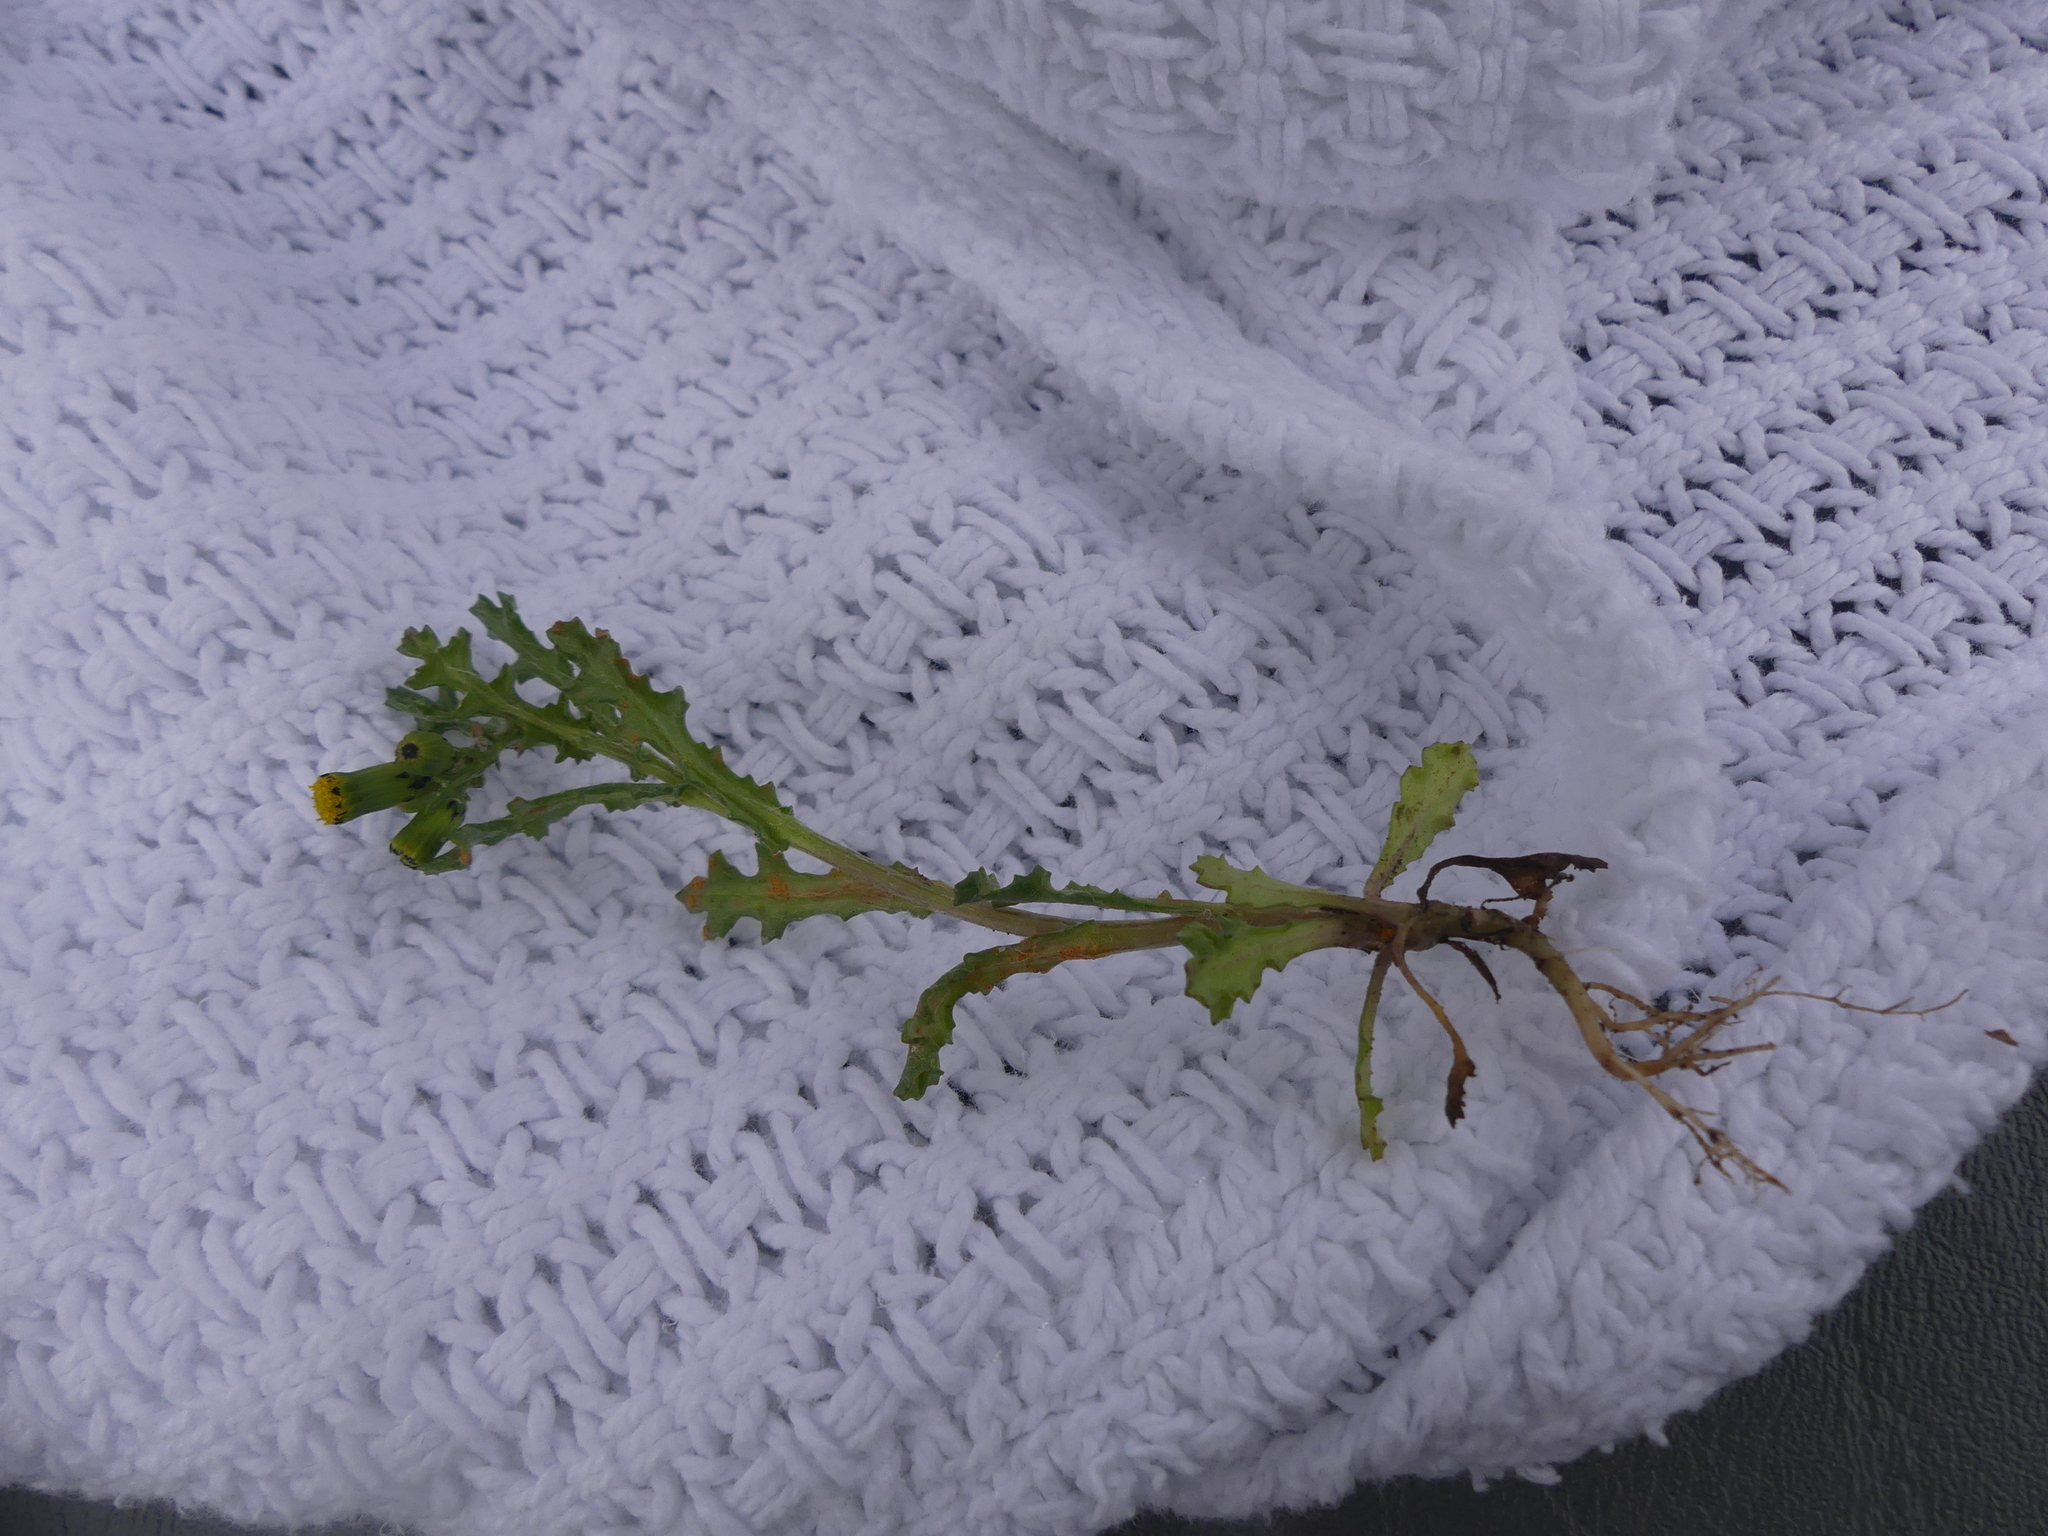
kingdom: Fungi
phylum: Basidiomycota
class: Pucciniomycetes
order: Pucciniales
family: Pucciniaceae
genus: Puccinia
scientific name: Puccinia lagenophorae
